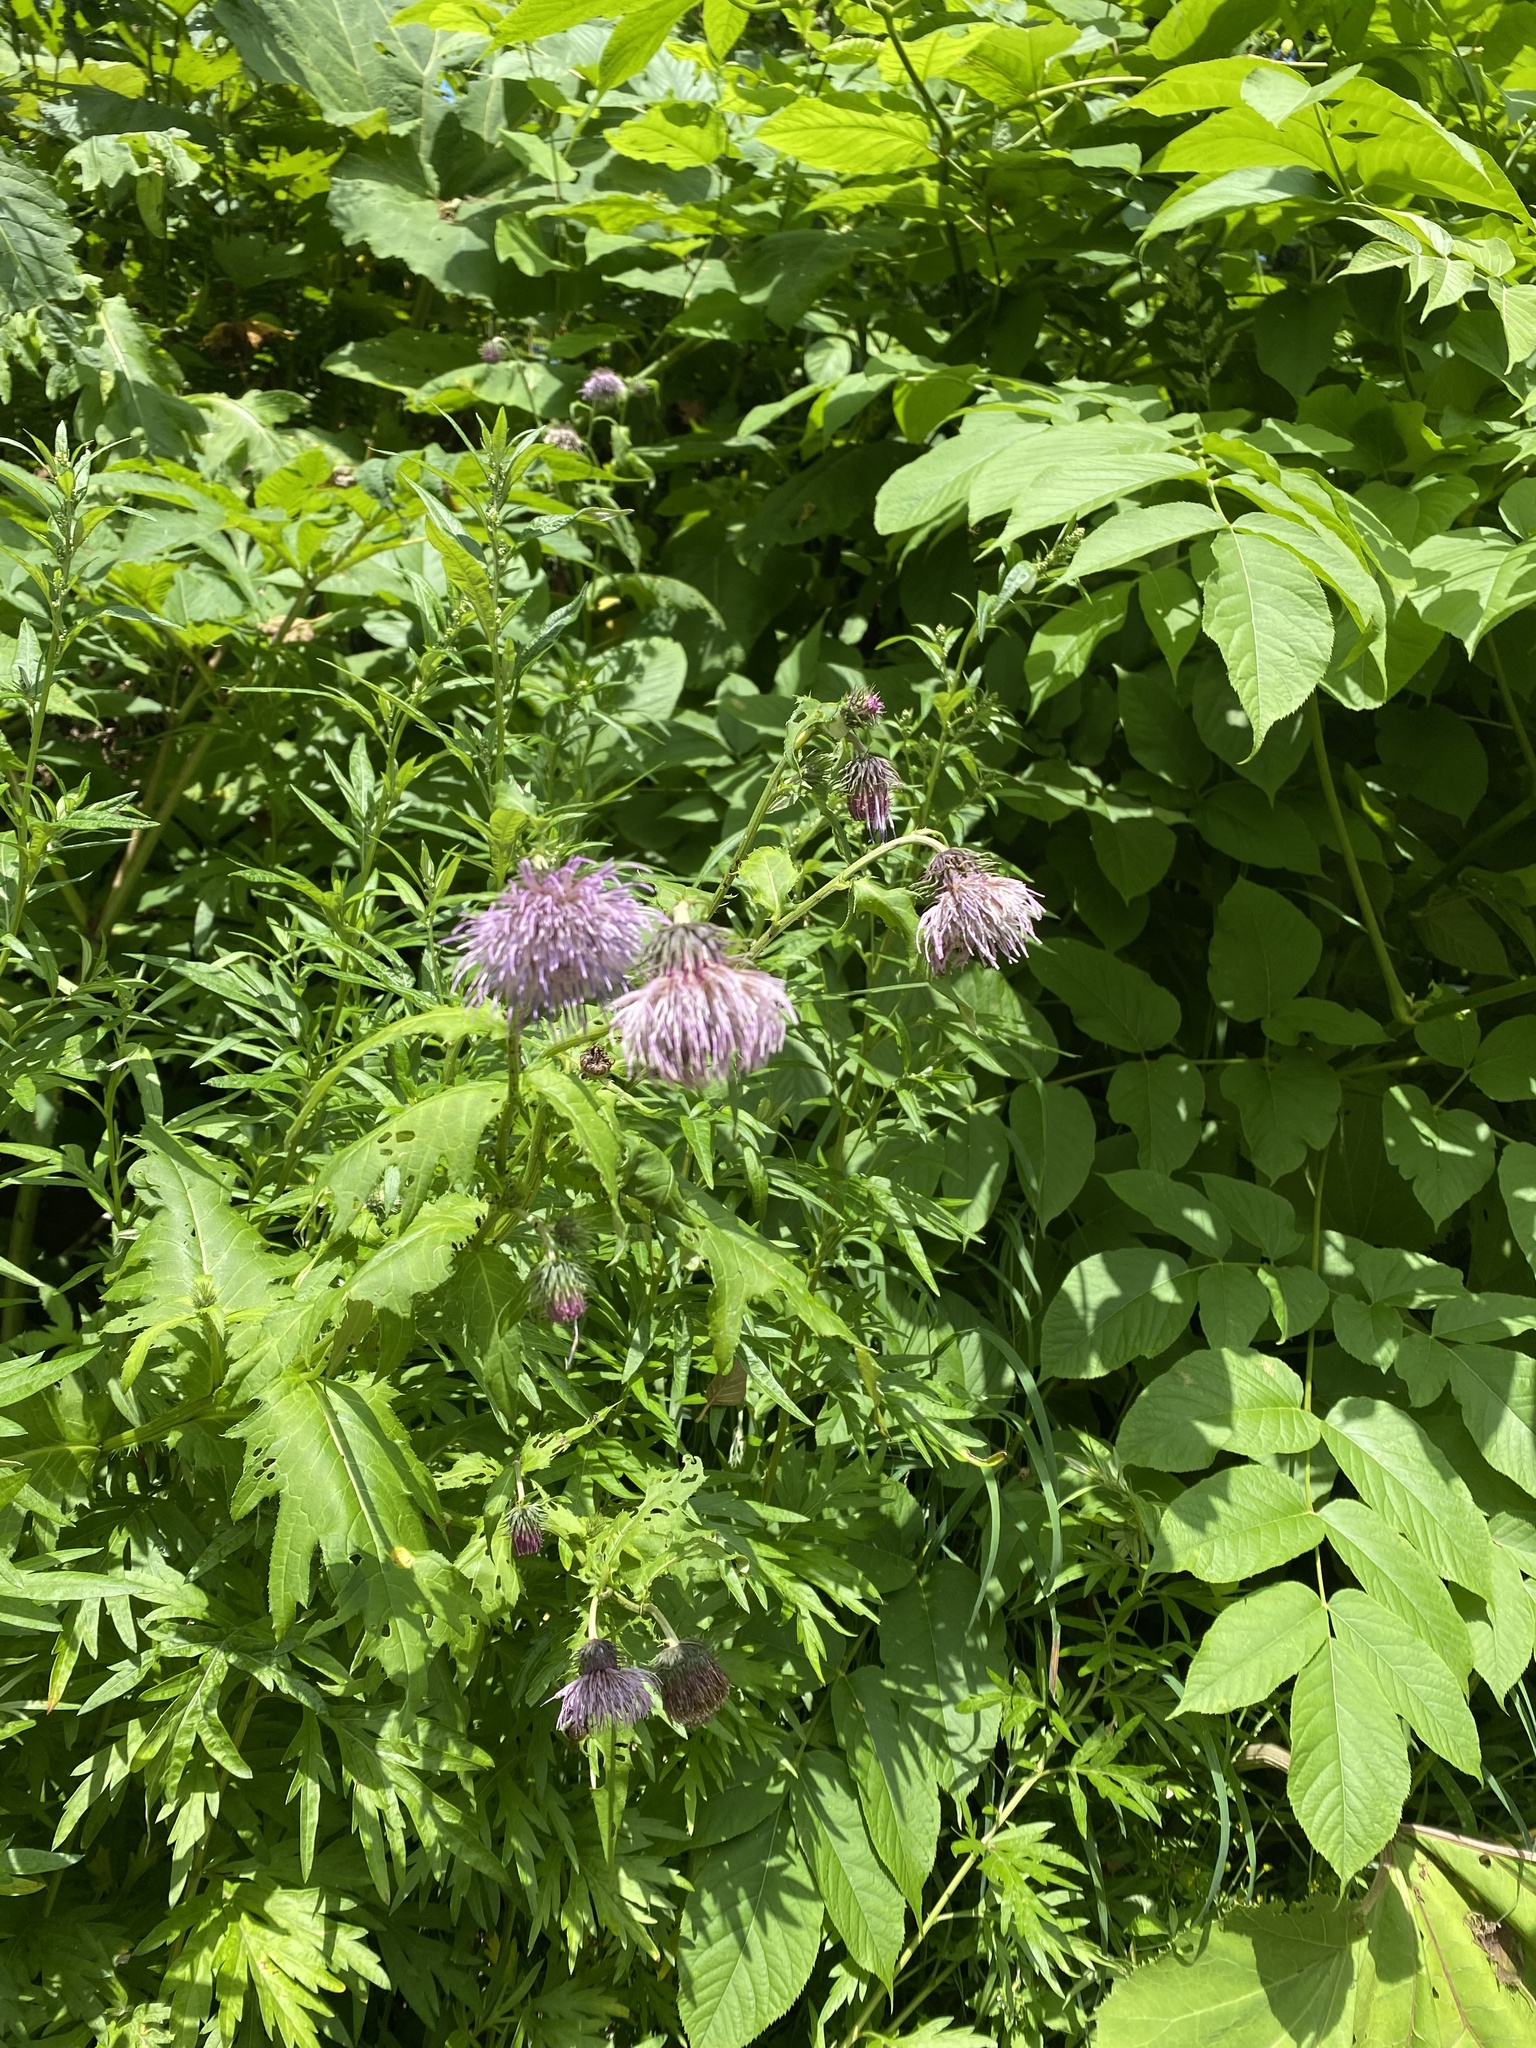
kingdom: Plantae
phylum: Tracheophyta
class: Magnoliopsida
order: Asterales
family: Asteraceae
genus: Cirsium
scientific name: Cirsium kamtschaticum
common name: Kamchatka thistle
